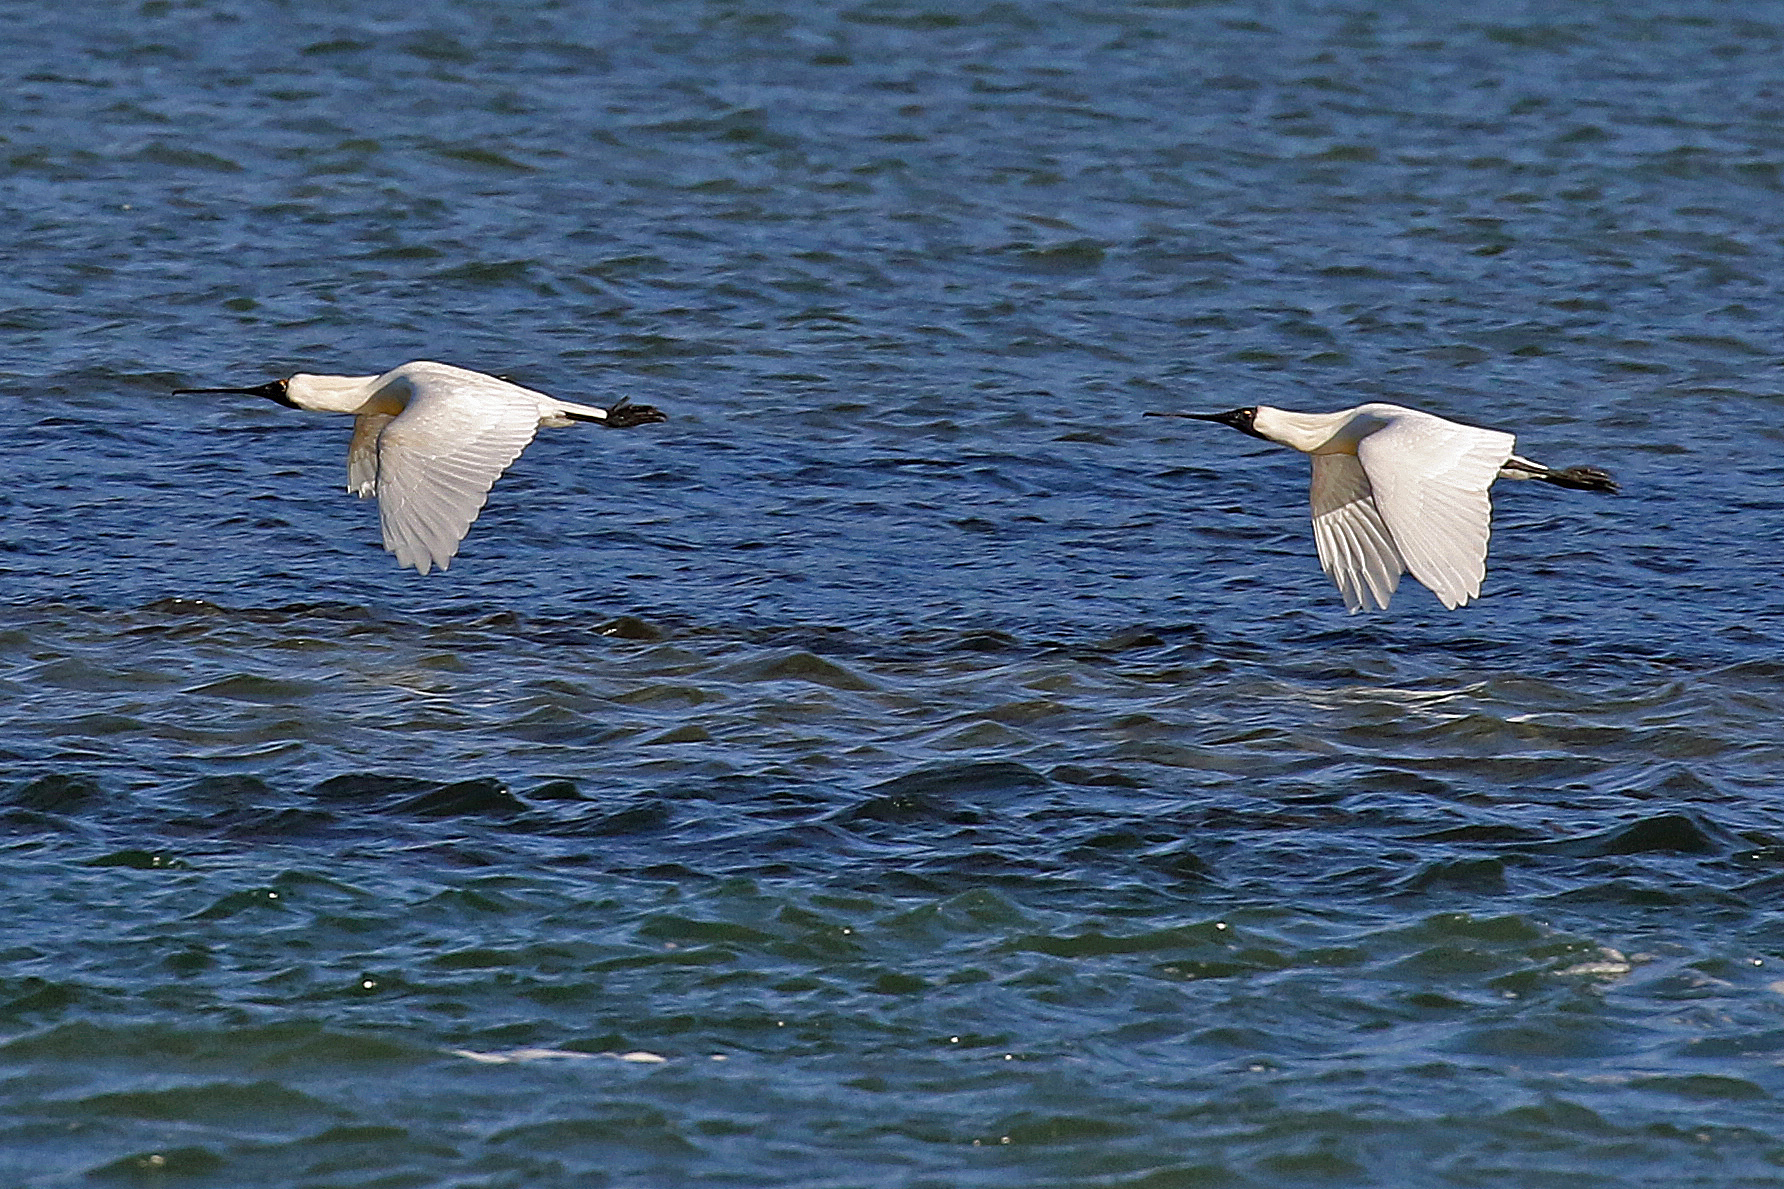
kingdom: Animalia
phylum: Chordata
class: Aves
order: Pelecaniformes
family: Threskiornithidae
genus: Platalea
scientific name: Platalea regia
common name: Royal spoonbill
